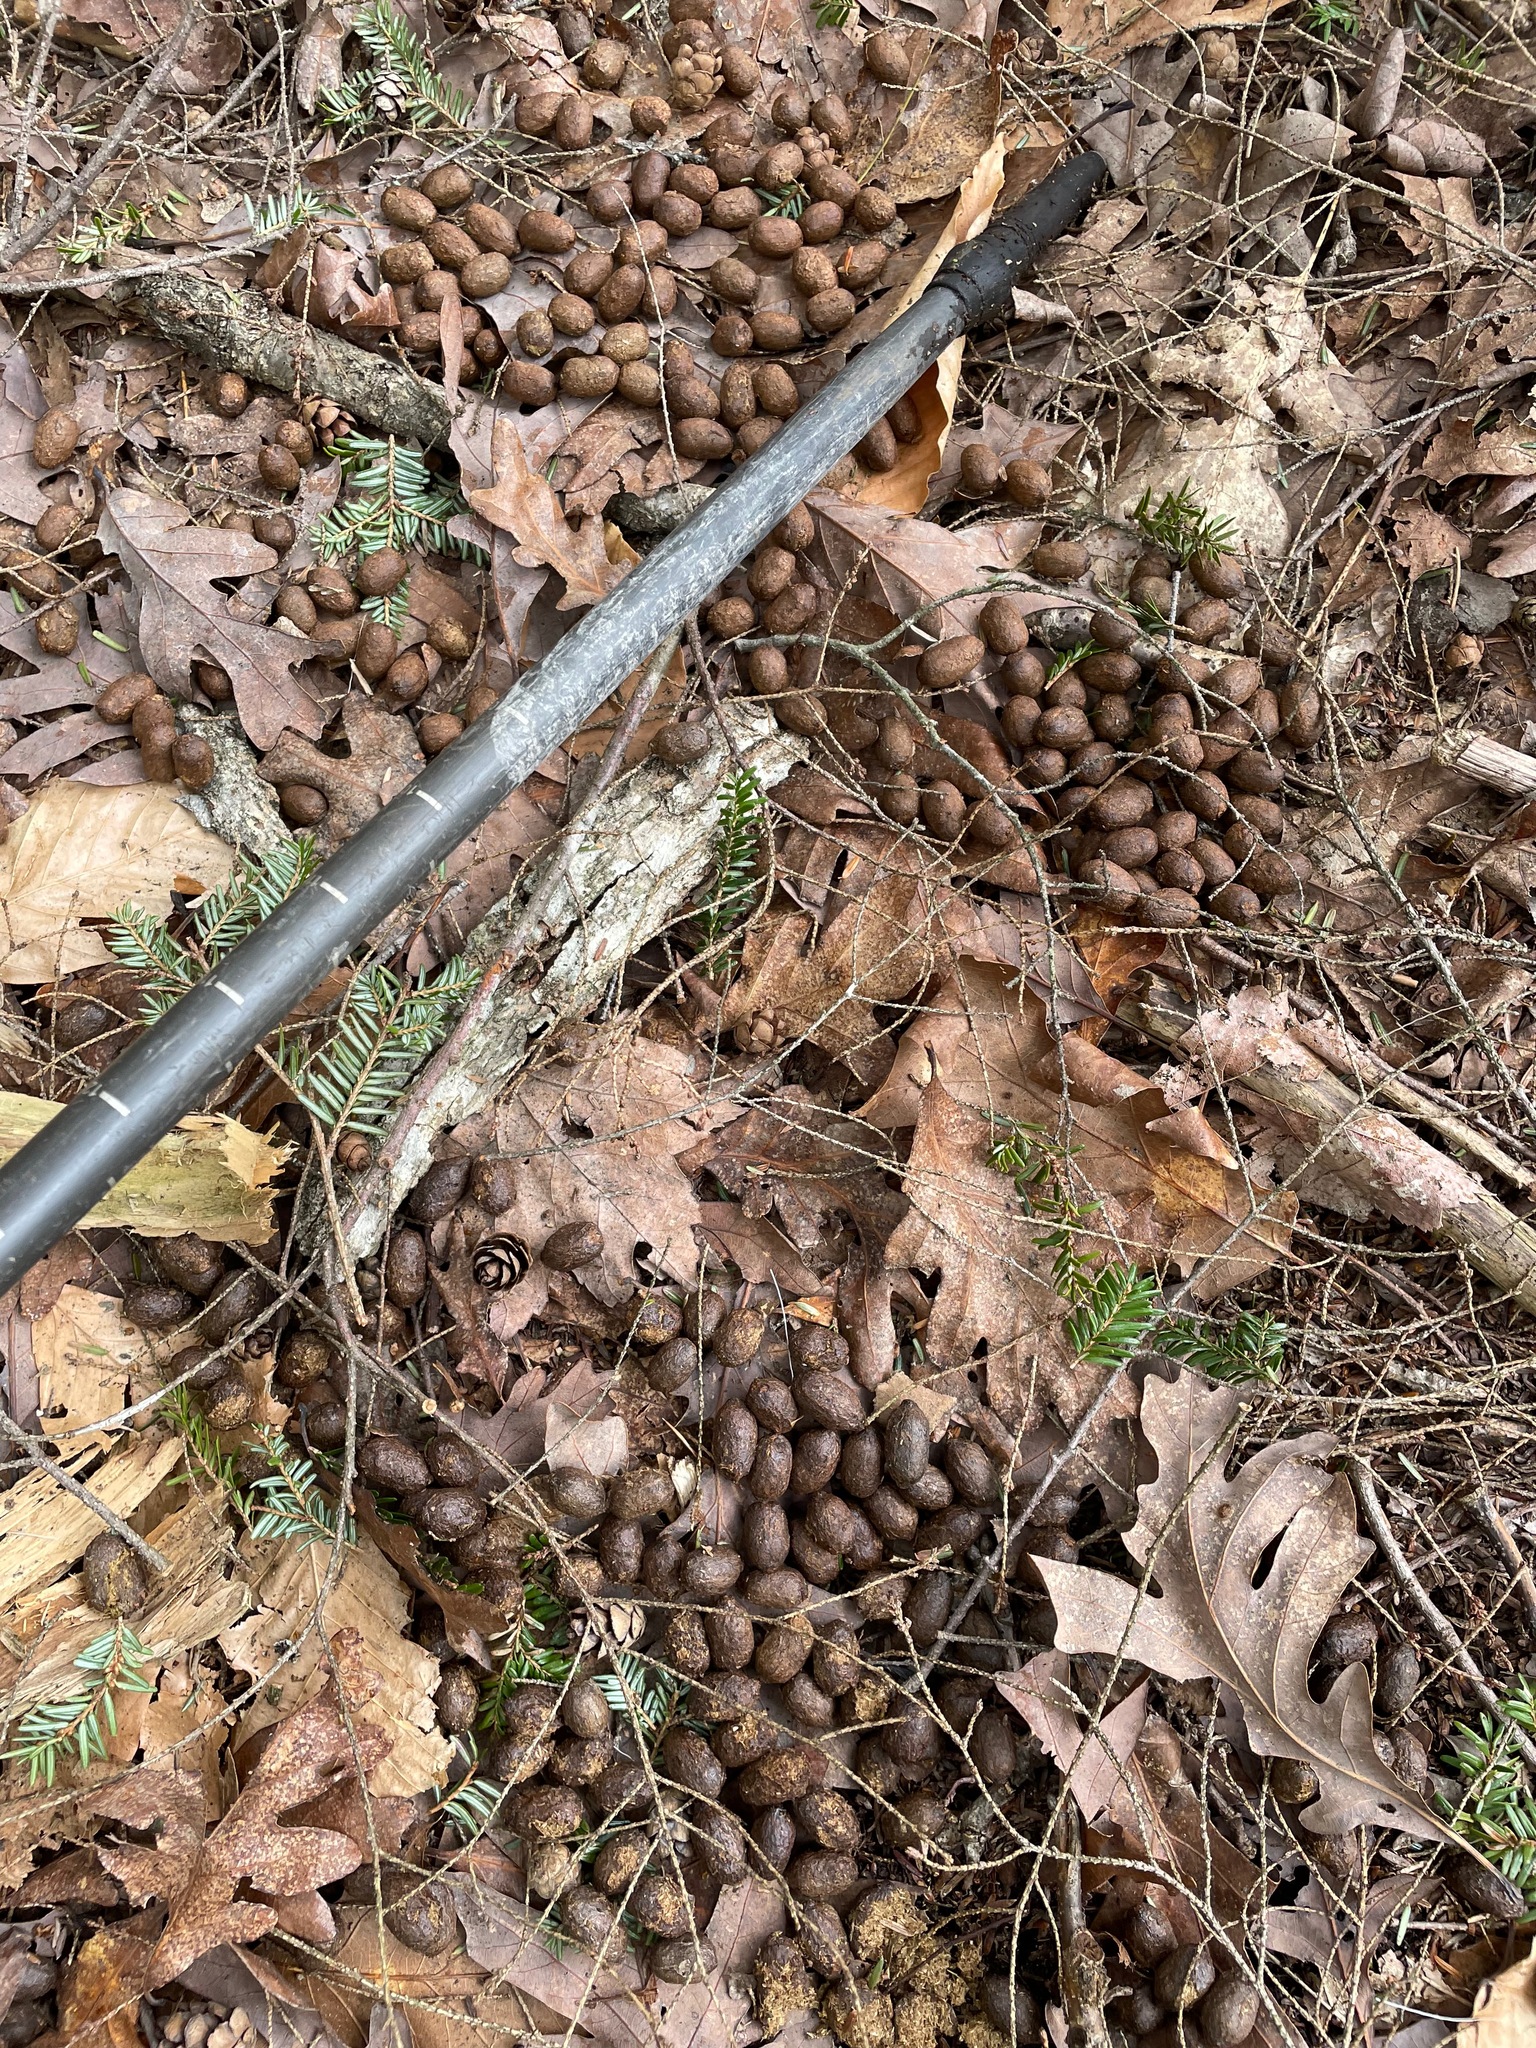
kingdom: Animalia
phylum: Chordata
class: Mammalia
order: Artiodactyla
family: Cervidae
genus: Odocoileus
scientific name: Odocoileus virginianus
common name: White-tailed deer
